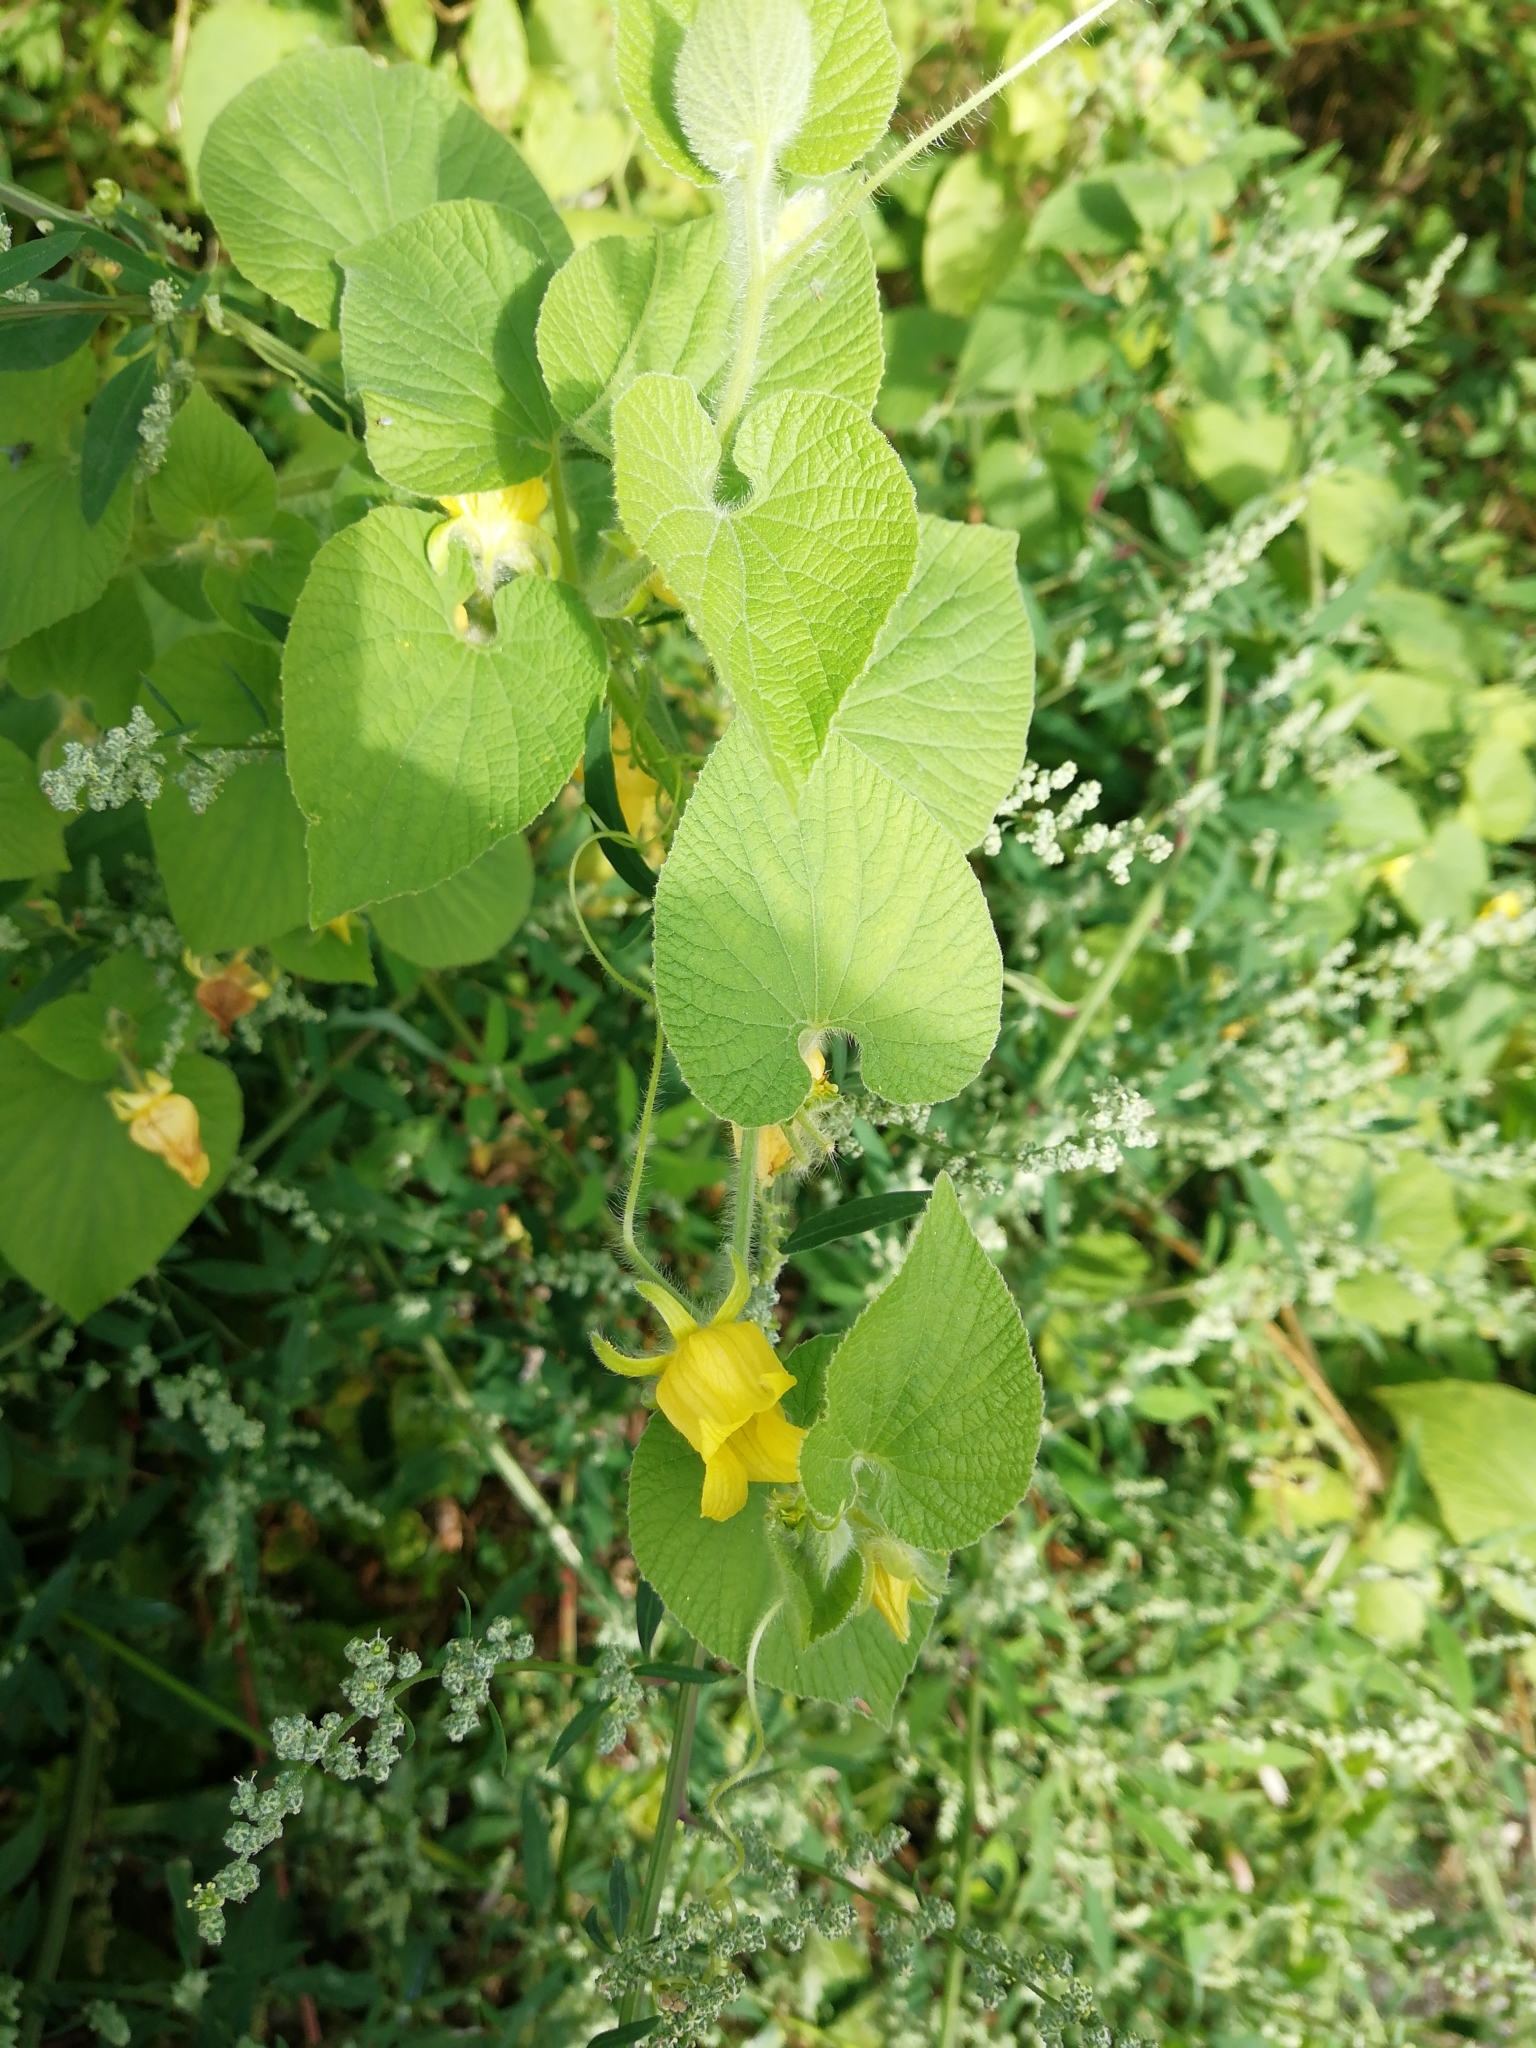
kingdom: Plantae
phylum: Tracheophyta
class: Magnoliopsida
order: Cucurbitales
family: Cucurbitaceae
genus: Thladiantha
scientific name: Thladiantha dubia
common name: Manchu tubergourd
